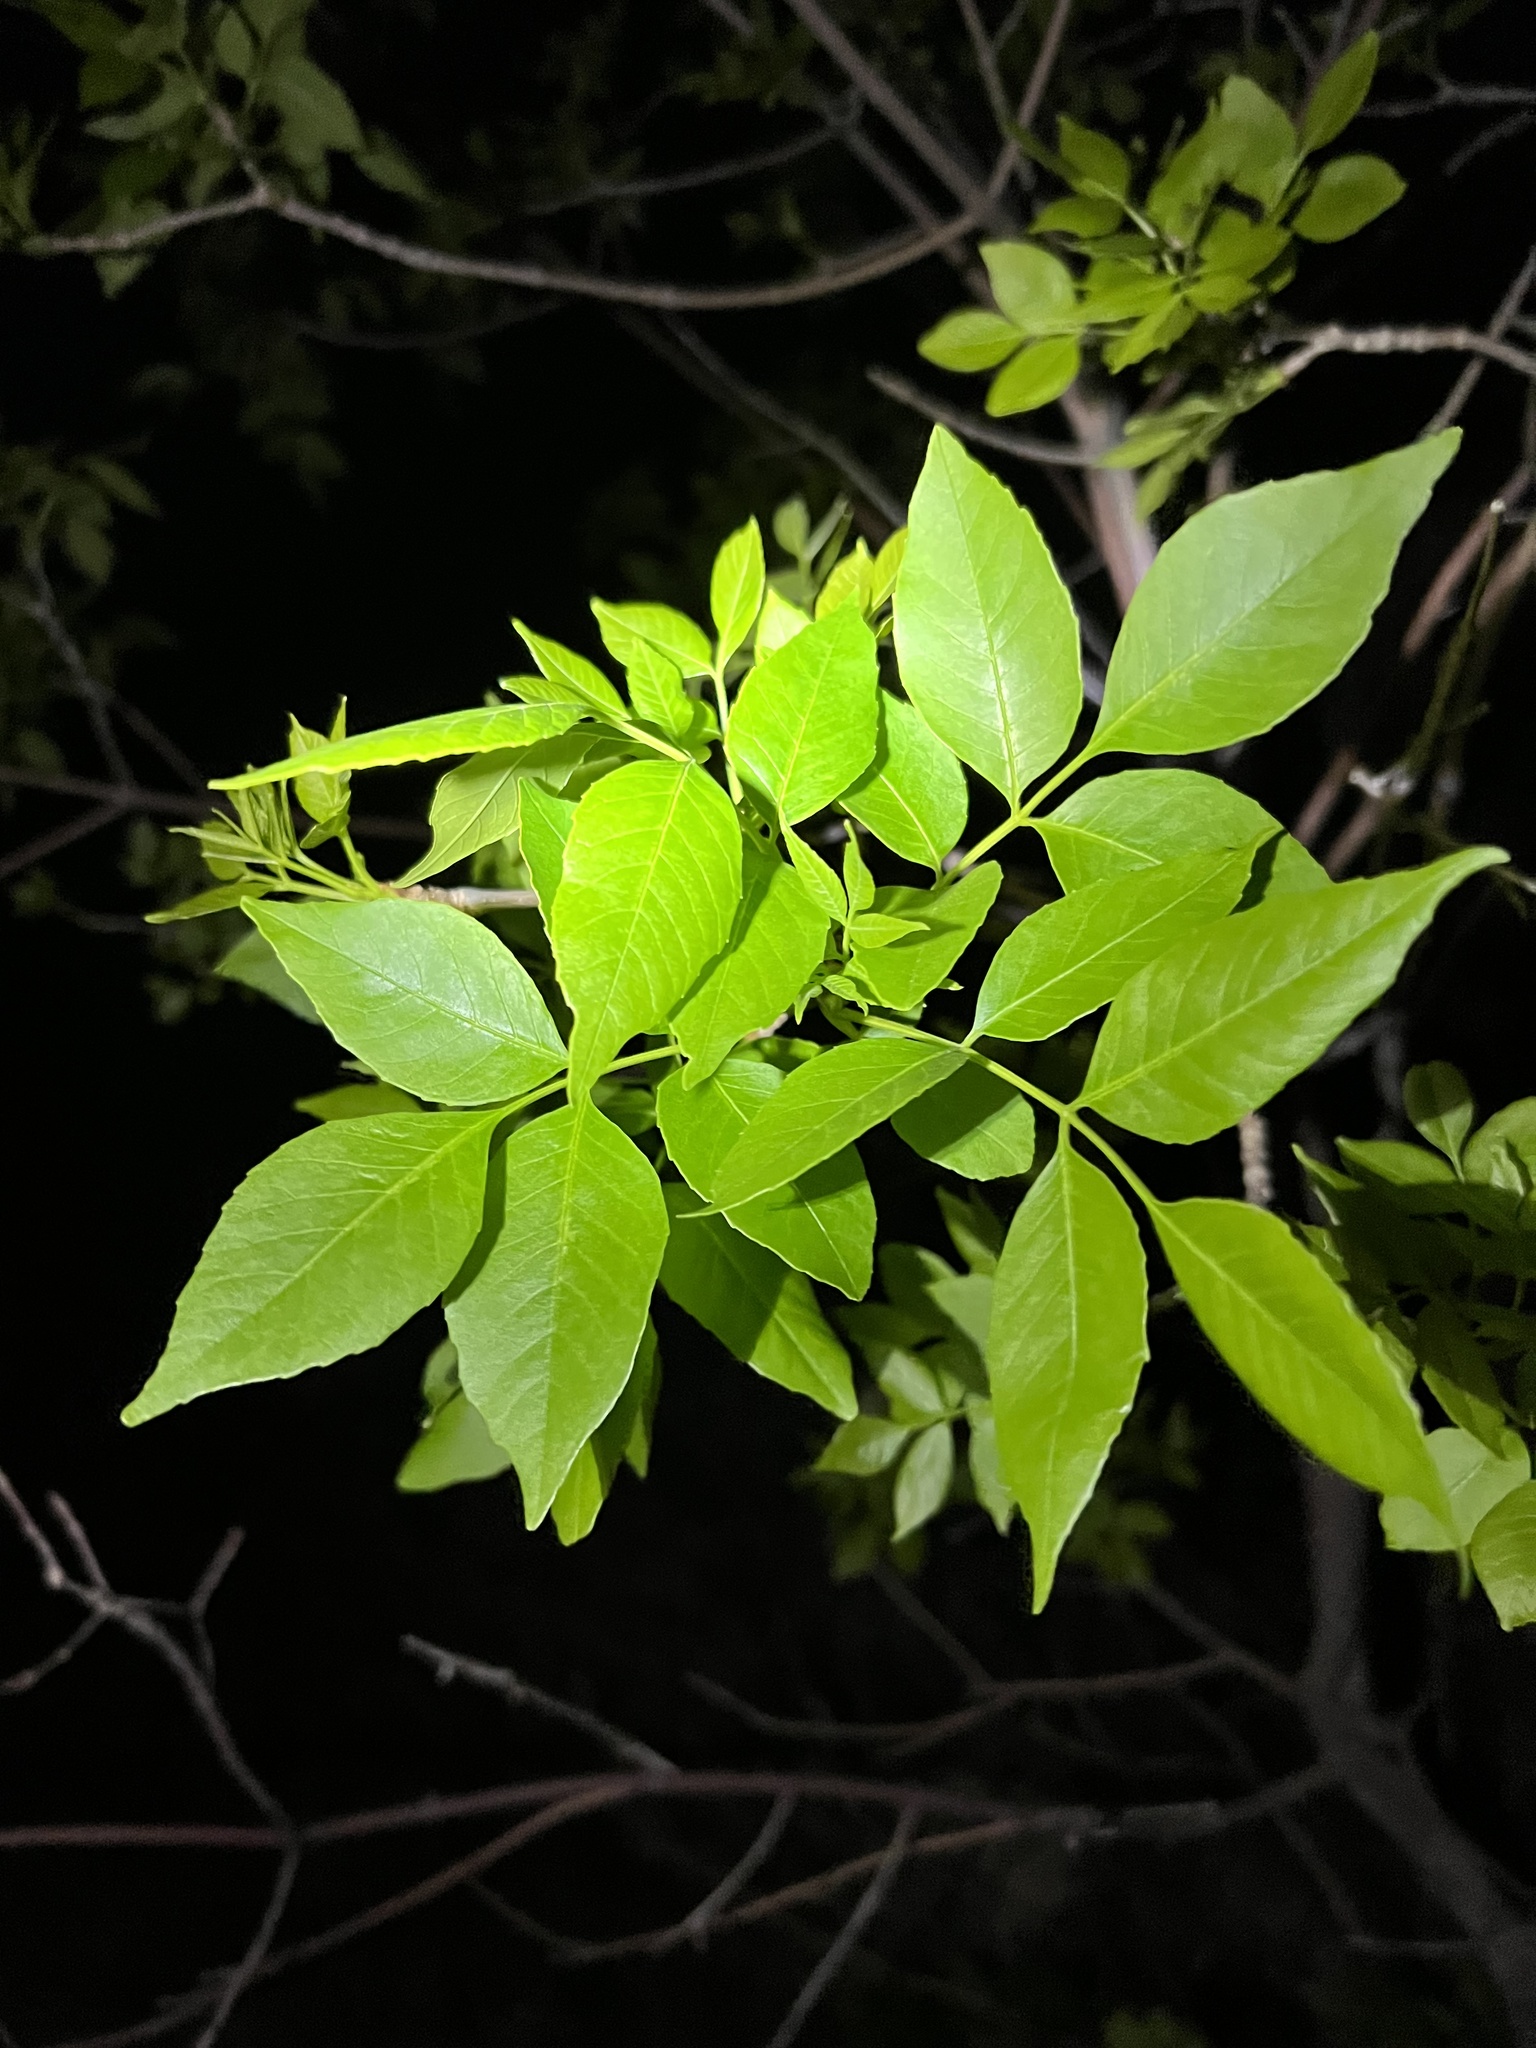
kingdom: Plantae
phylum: Tracheophyta
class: Magnoliopsida
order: Lamiales
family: Oleaceae
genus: Fraxinus
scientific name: Fraxinus pennsylvanica
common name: Green ash
